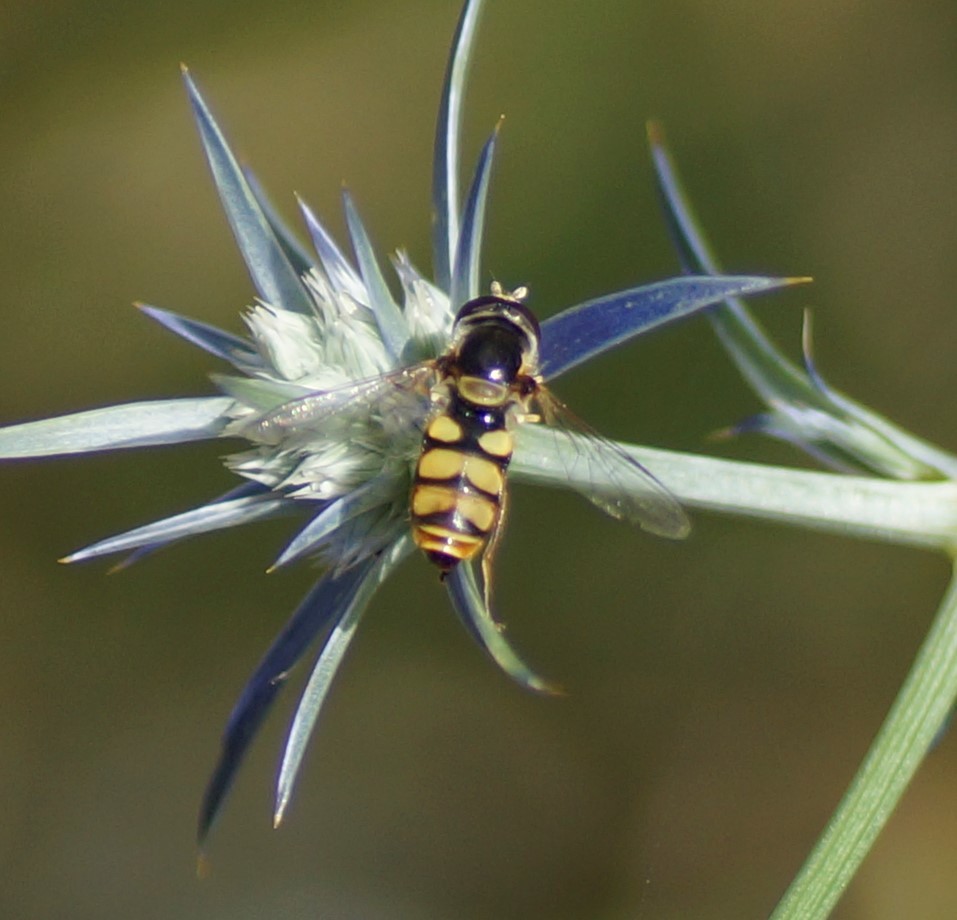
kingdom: Animalia
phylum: Arthropoda
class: Insecta
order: Diptera
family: Syrphidae
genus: Simosyrphus
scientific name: Simosyrphus grandicornis
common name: Hoverfly
